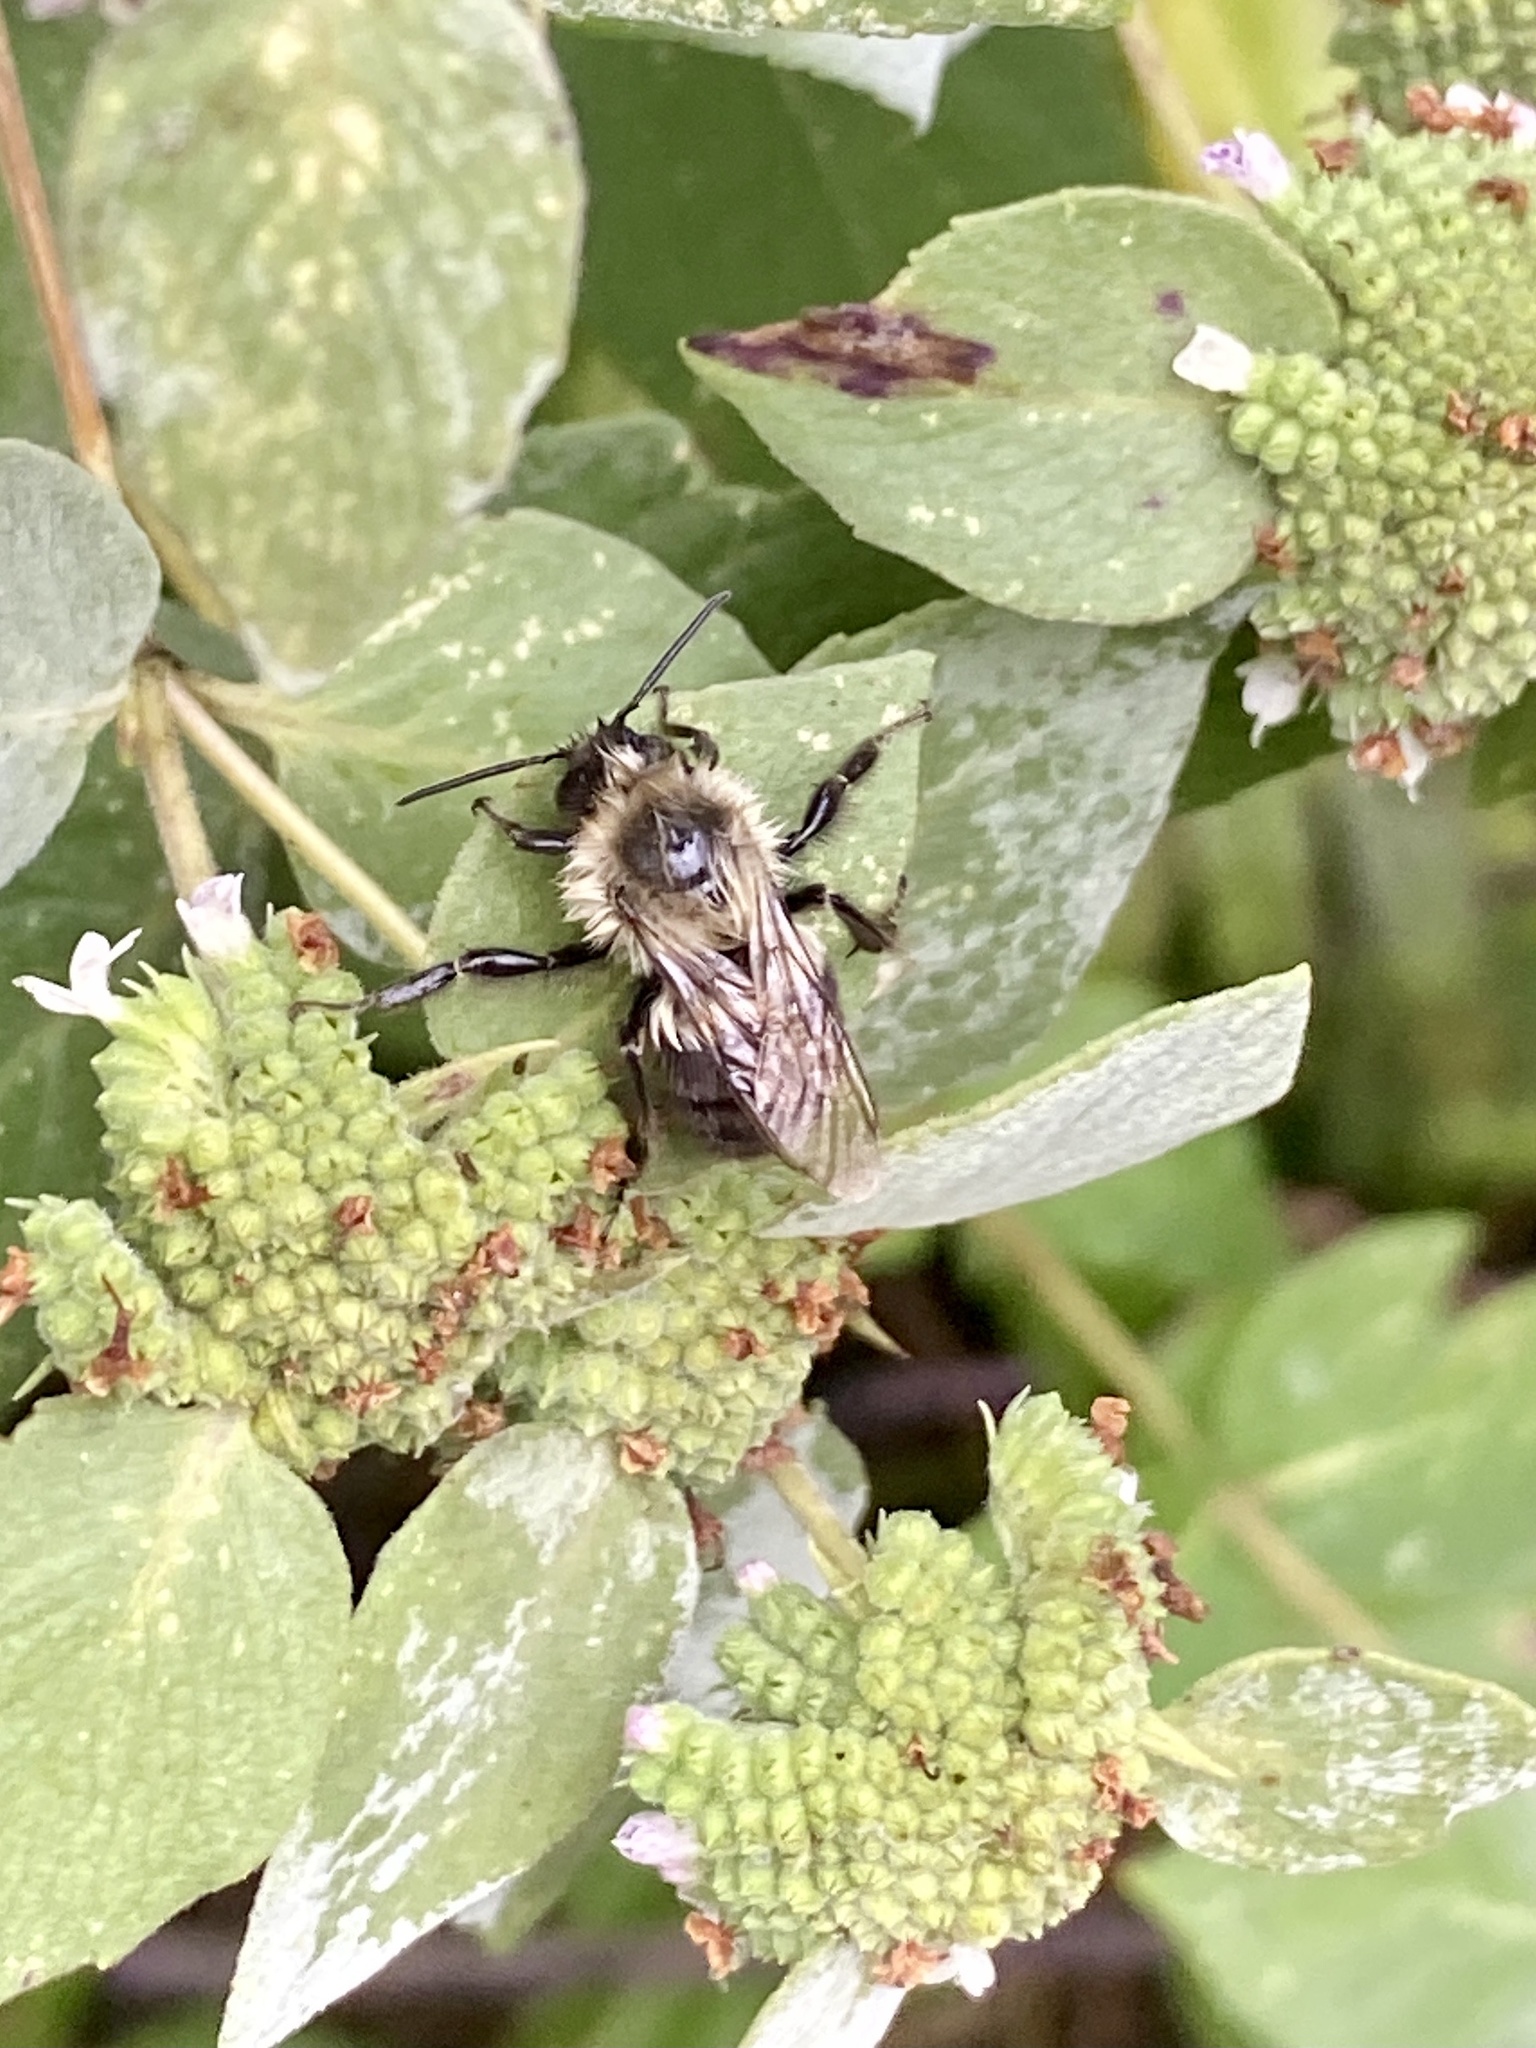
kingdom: Animalia
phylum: Arthropoda
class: Insecta
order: Hymenoptera
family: Apidae
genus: Bombus
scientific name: Bombus impatiens
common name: Common eastern bumble bee
